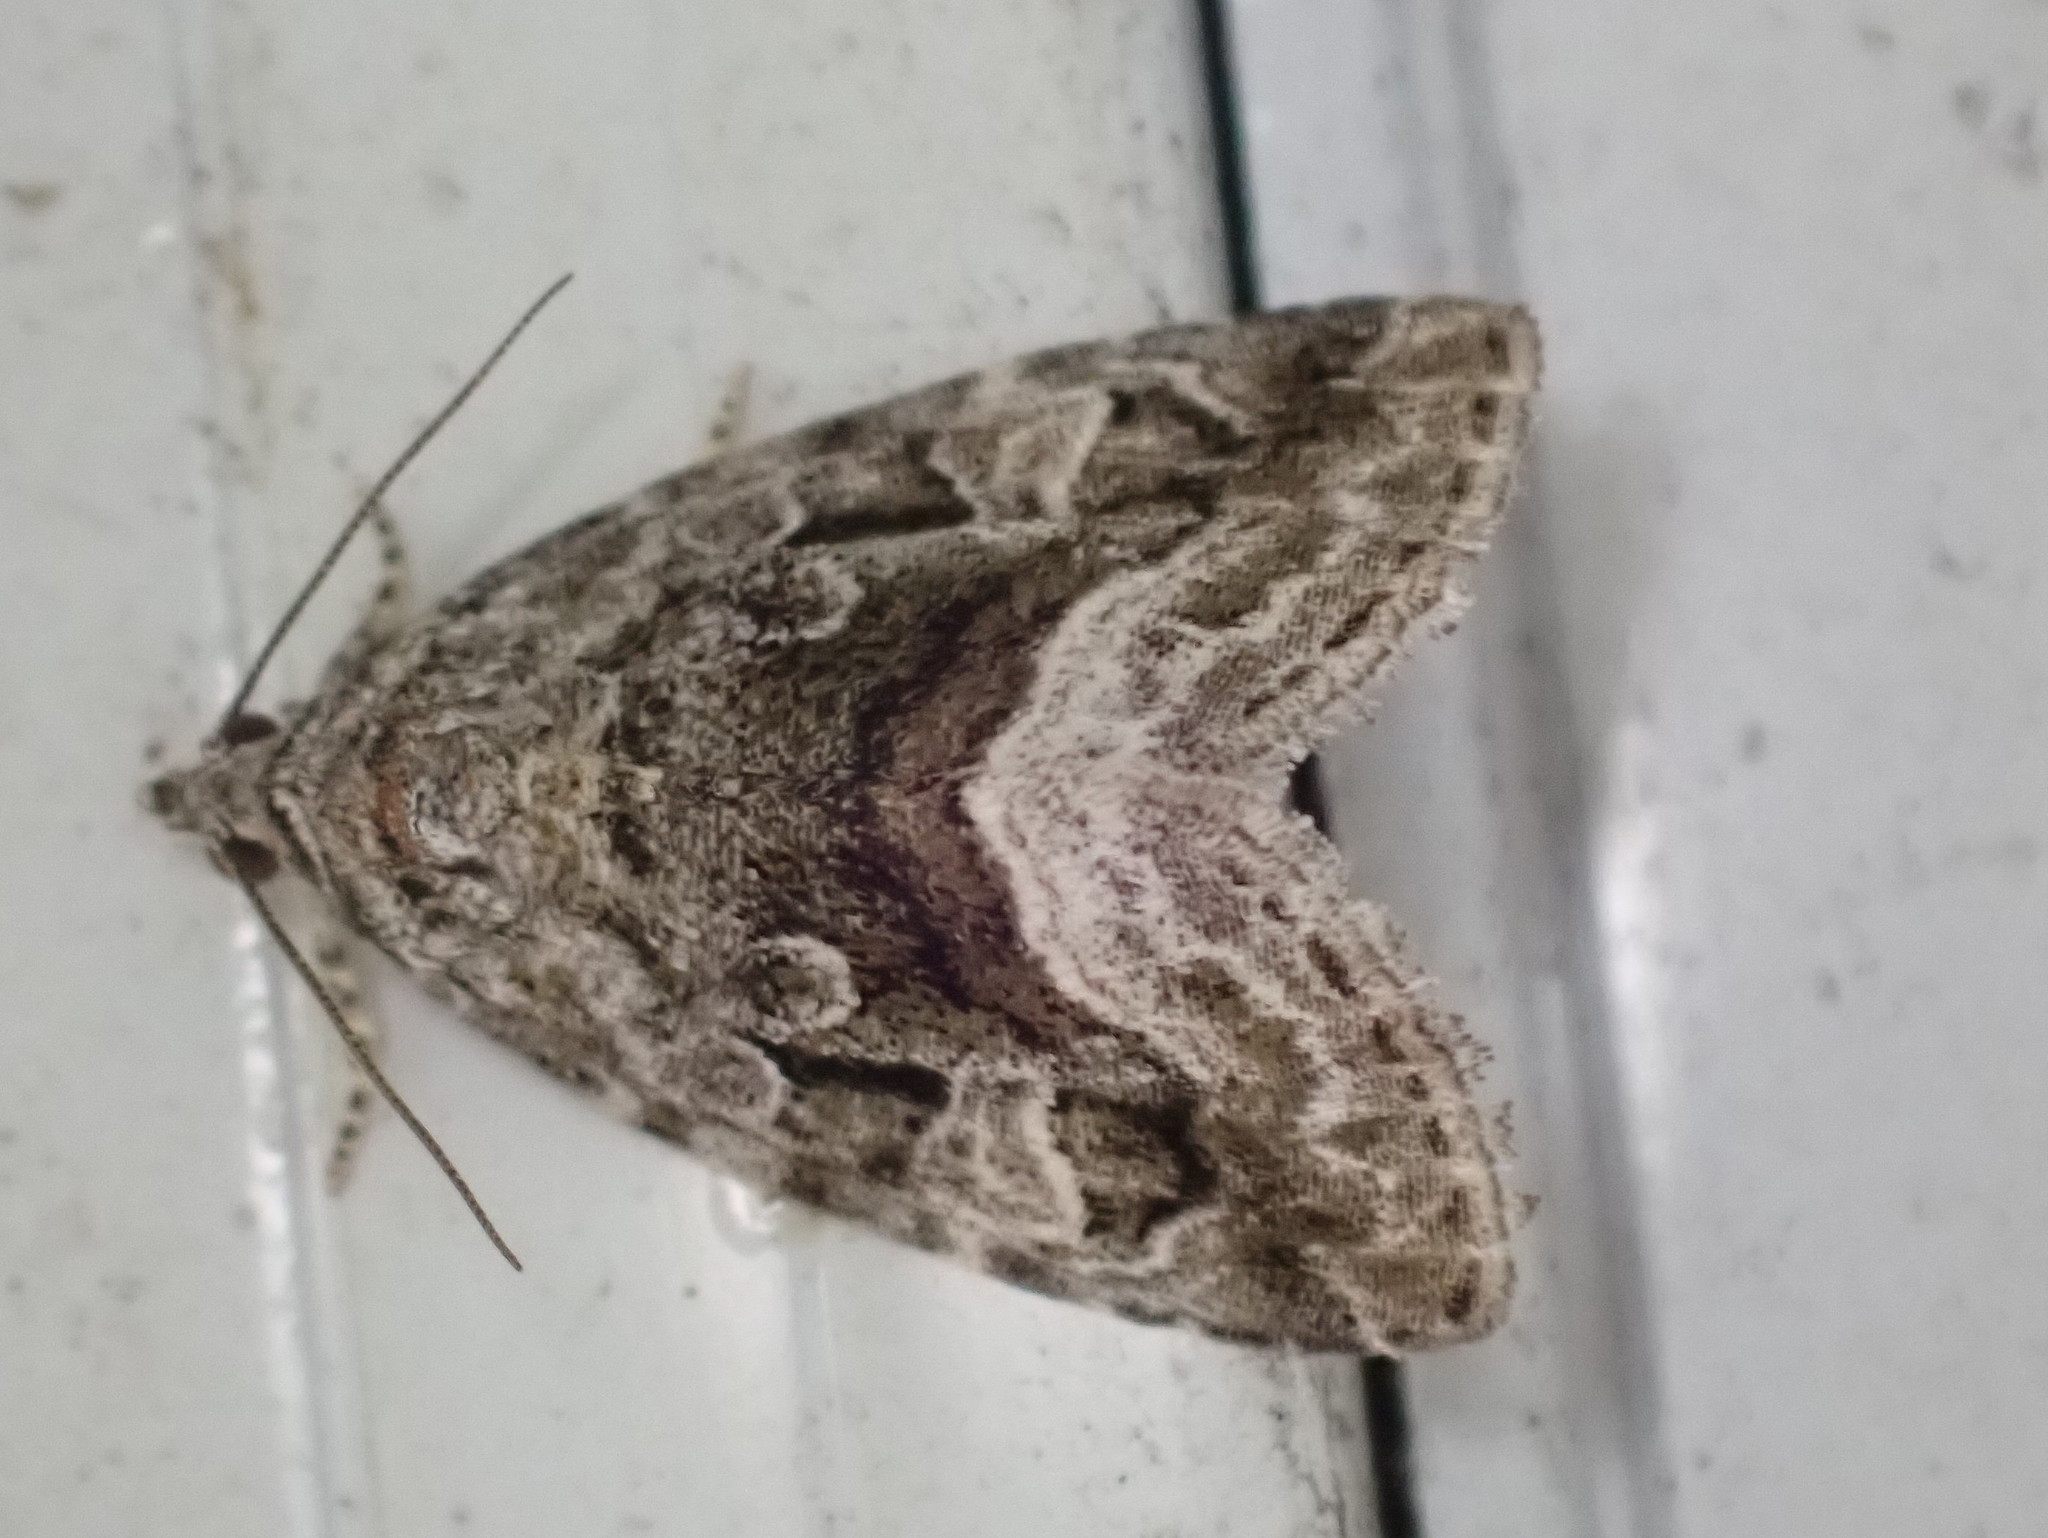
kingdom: Animalia
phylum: Arthropoda
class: Insecta
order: Lepidoptera
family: Noctuidae
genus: Protodeltote
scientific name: Protodeltote muscosula
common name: Large mossy glyph
